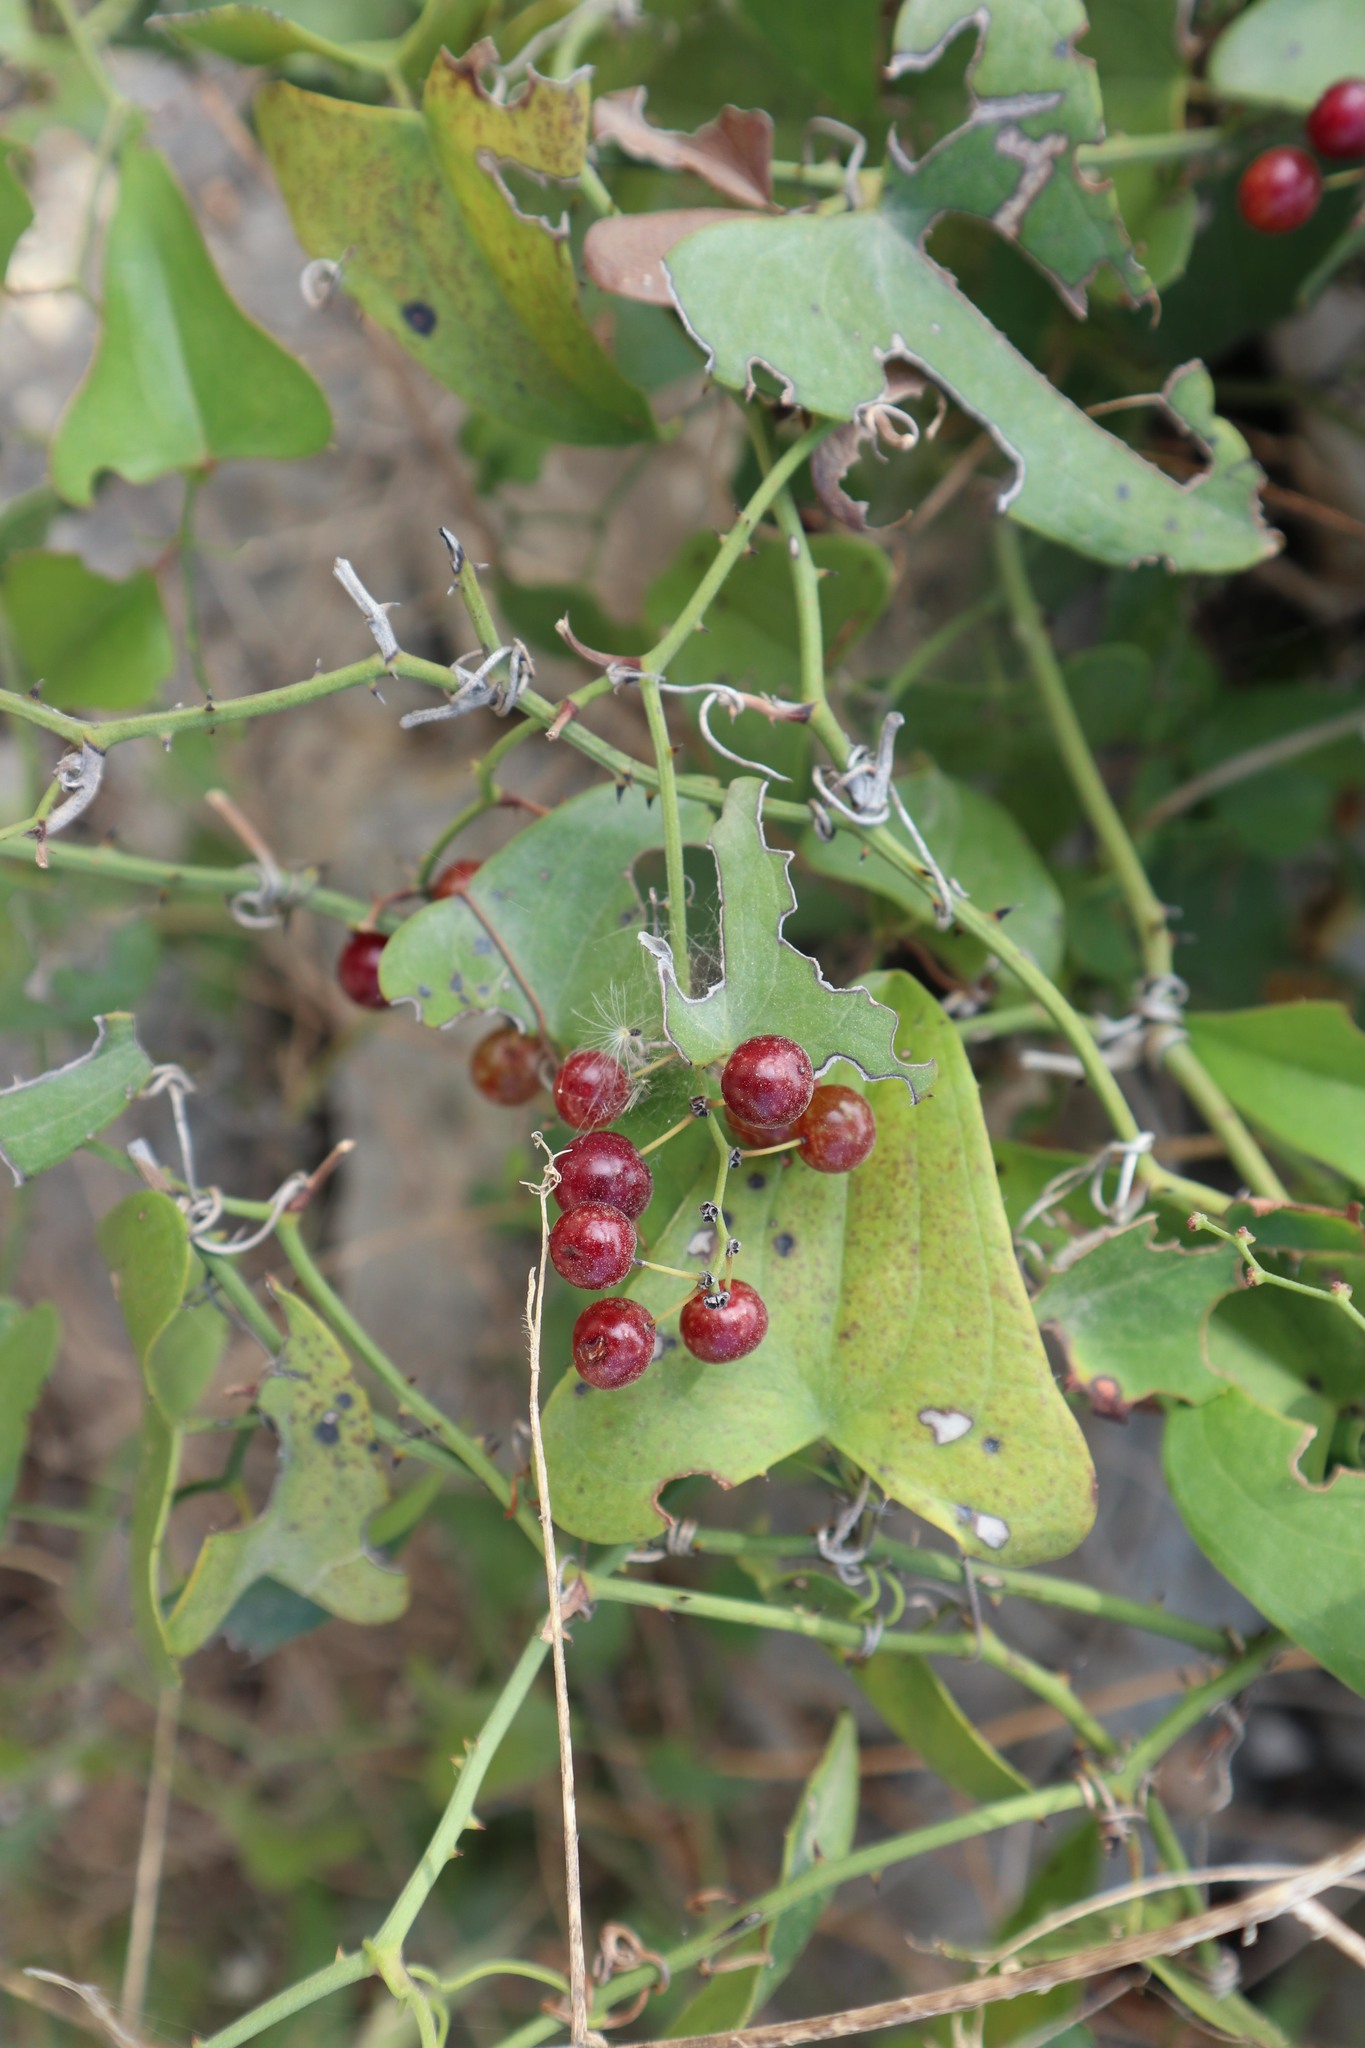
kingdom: Plantae
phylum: Tracheophyta
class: Liliopsida
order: Liliales
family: Smilacaceae
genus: Smilax
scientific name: Smilax aspera
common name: Common smilax
